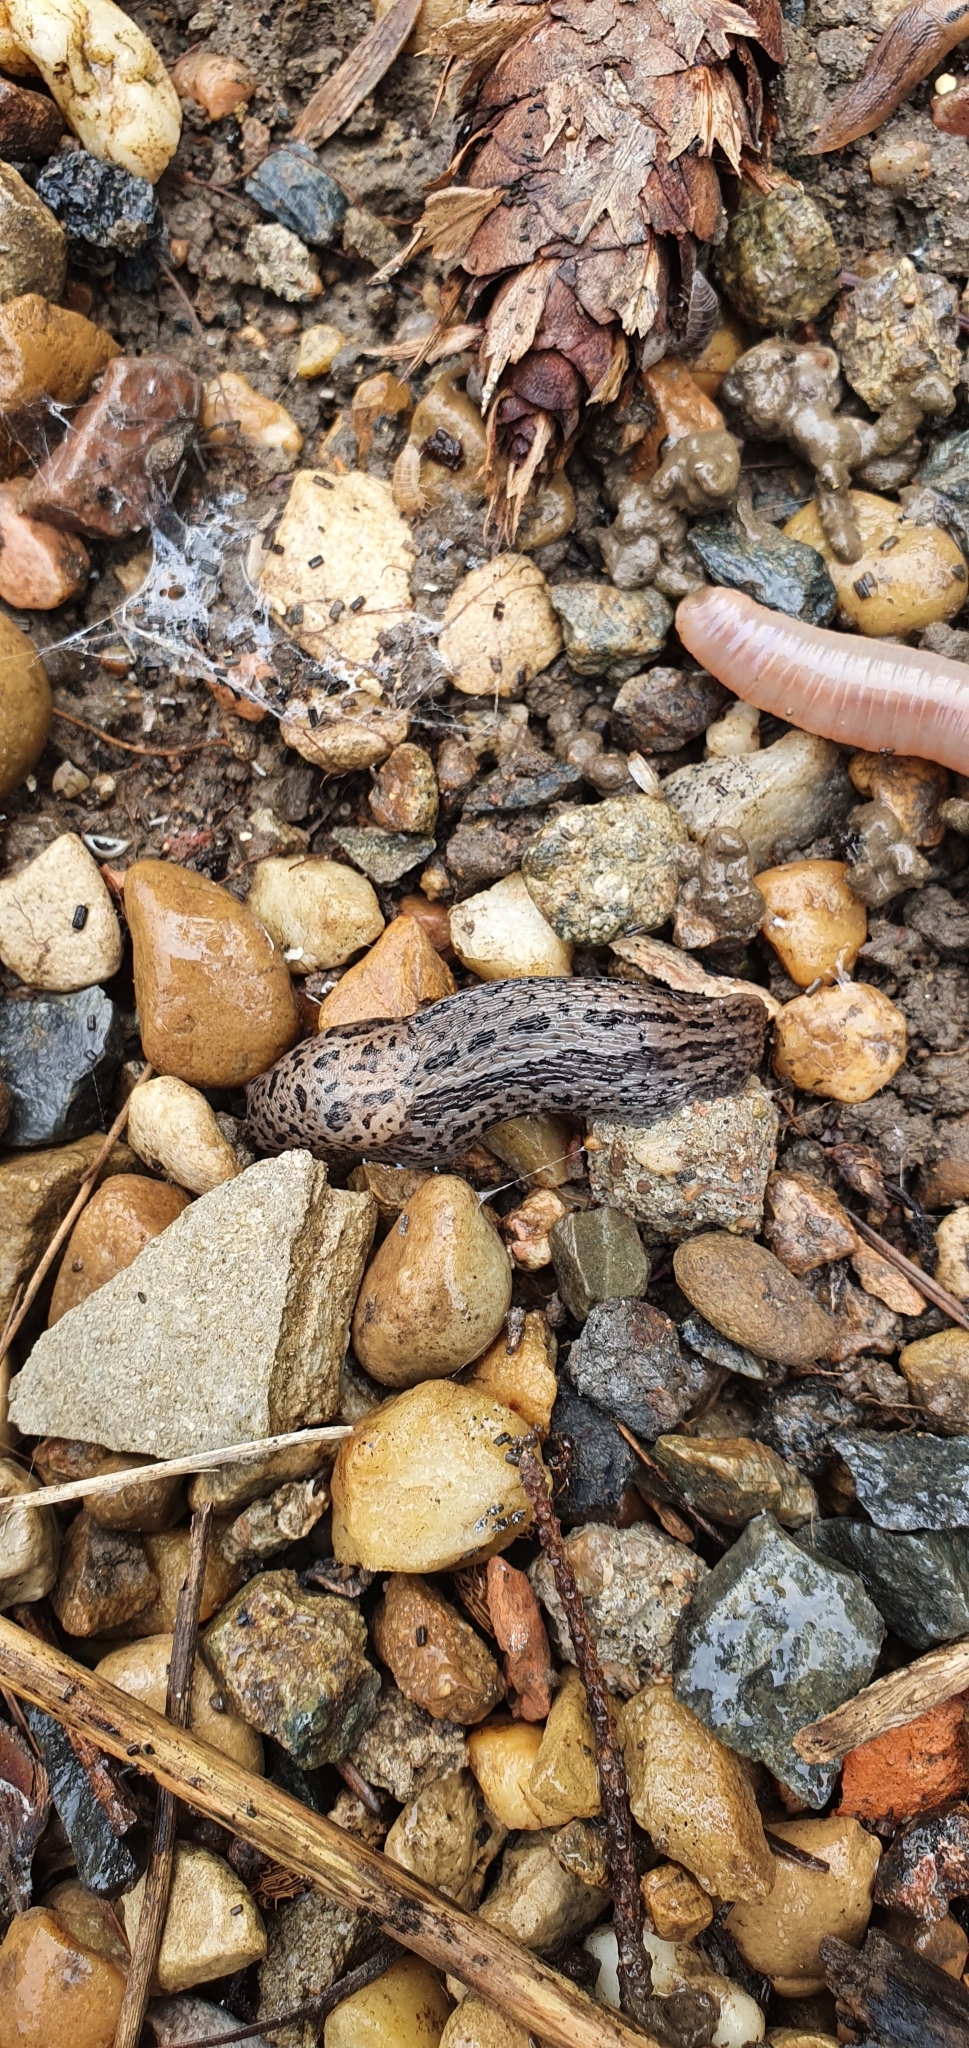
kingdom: Animalia
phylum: Mollusca
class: Gastropoda
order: Stylommatophora
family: Limacidae
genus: Limax
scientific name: Limax maximus
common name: Great grey slug
